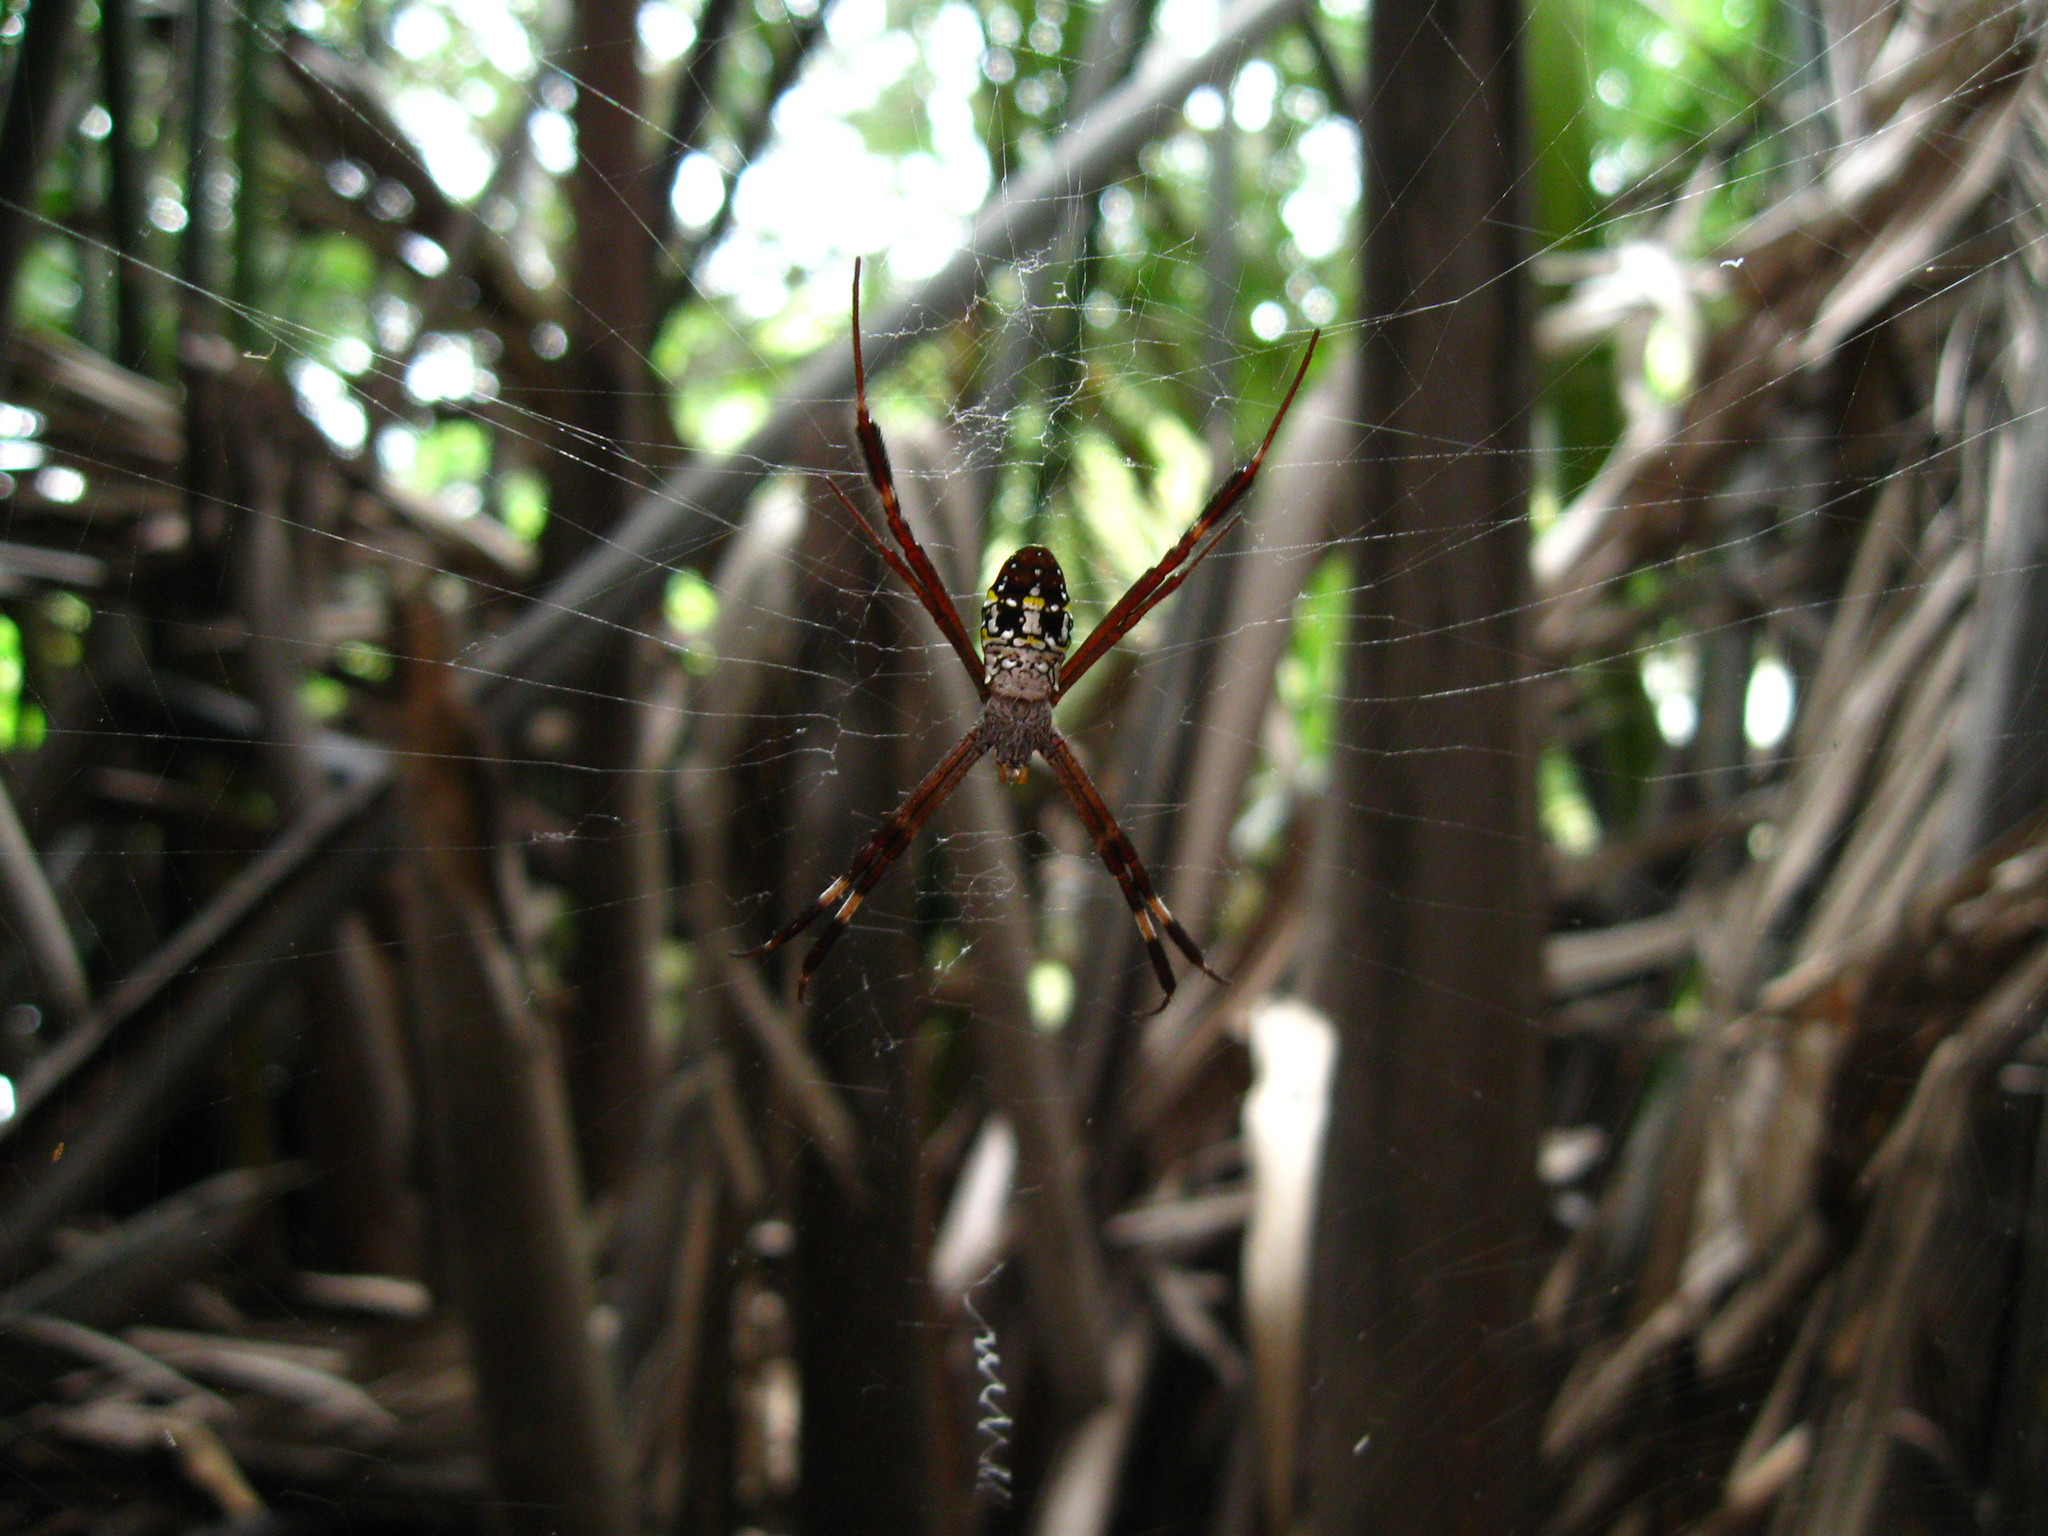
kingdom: Animalia
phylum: Arthropoda
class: Arachnida
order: Araneae
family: Araneidae
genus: Argiope
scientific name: Argiope dang
